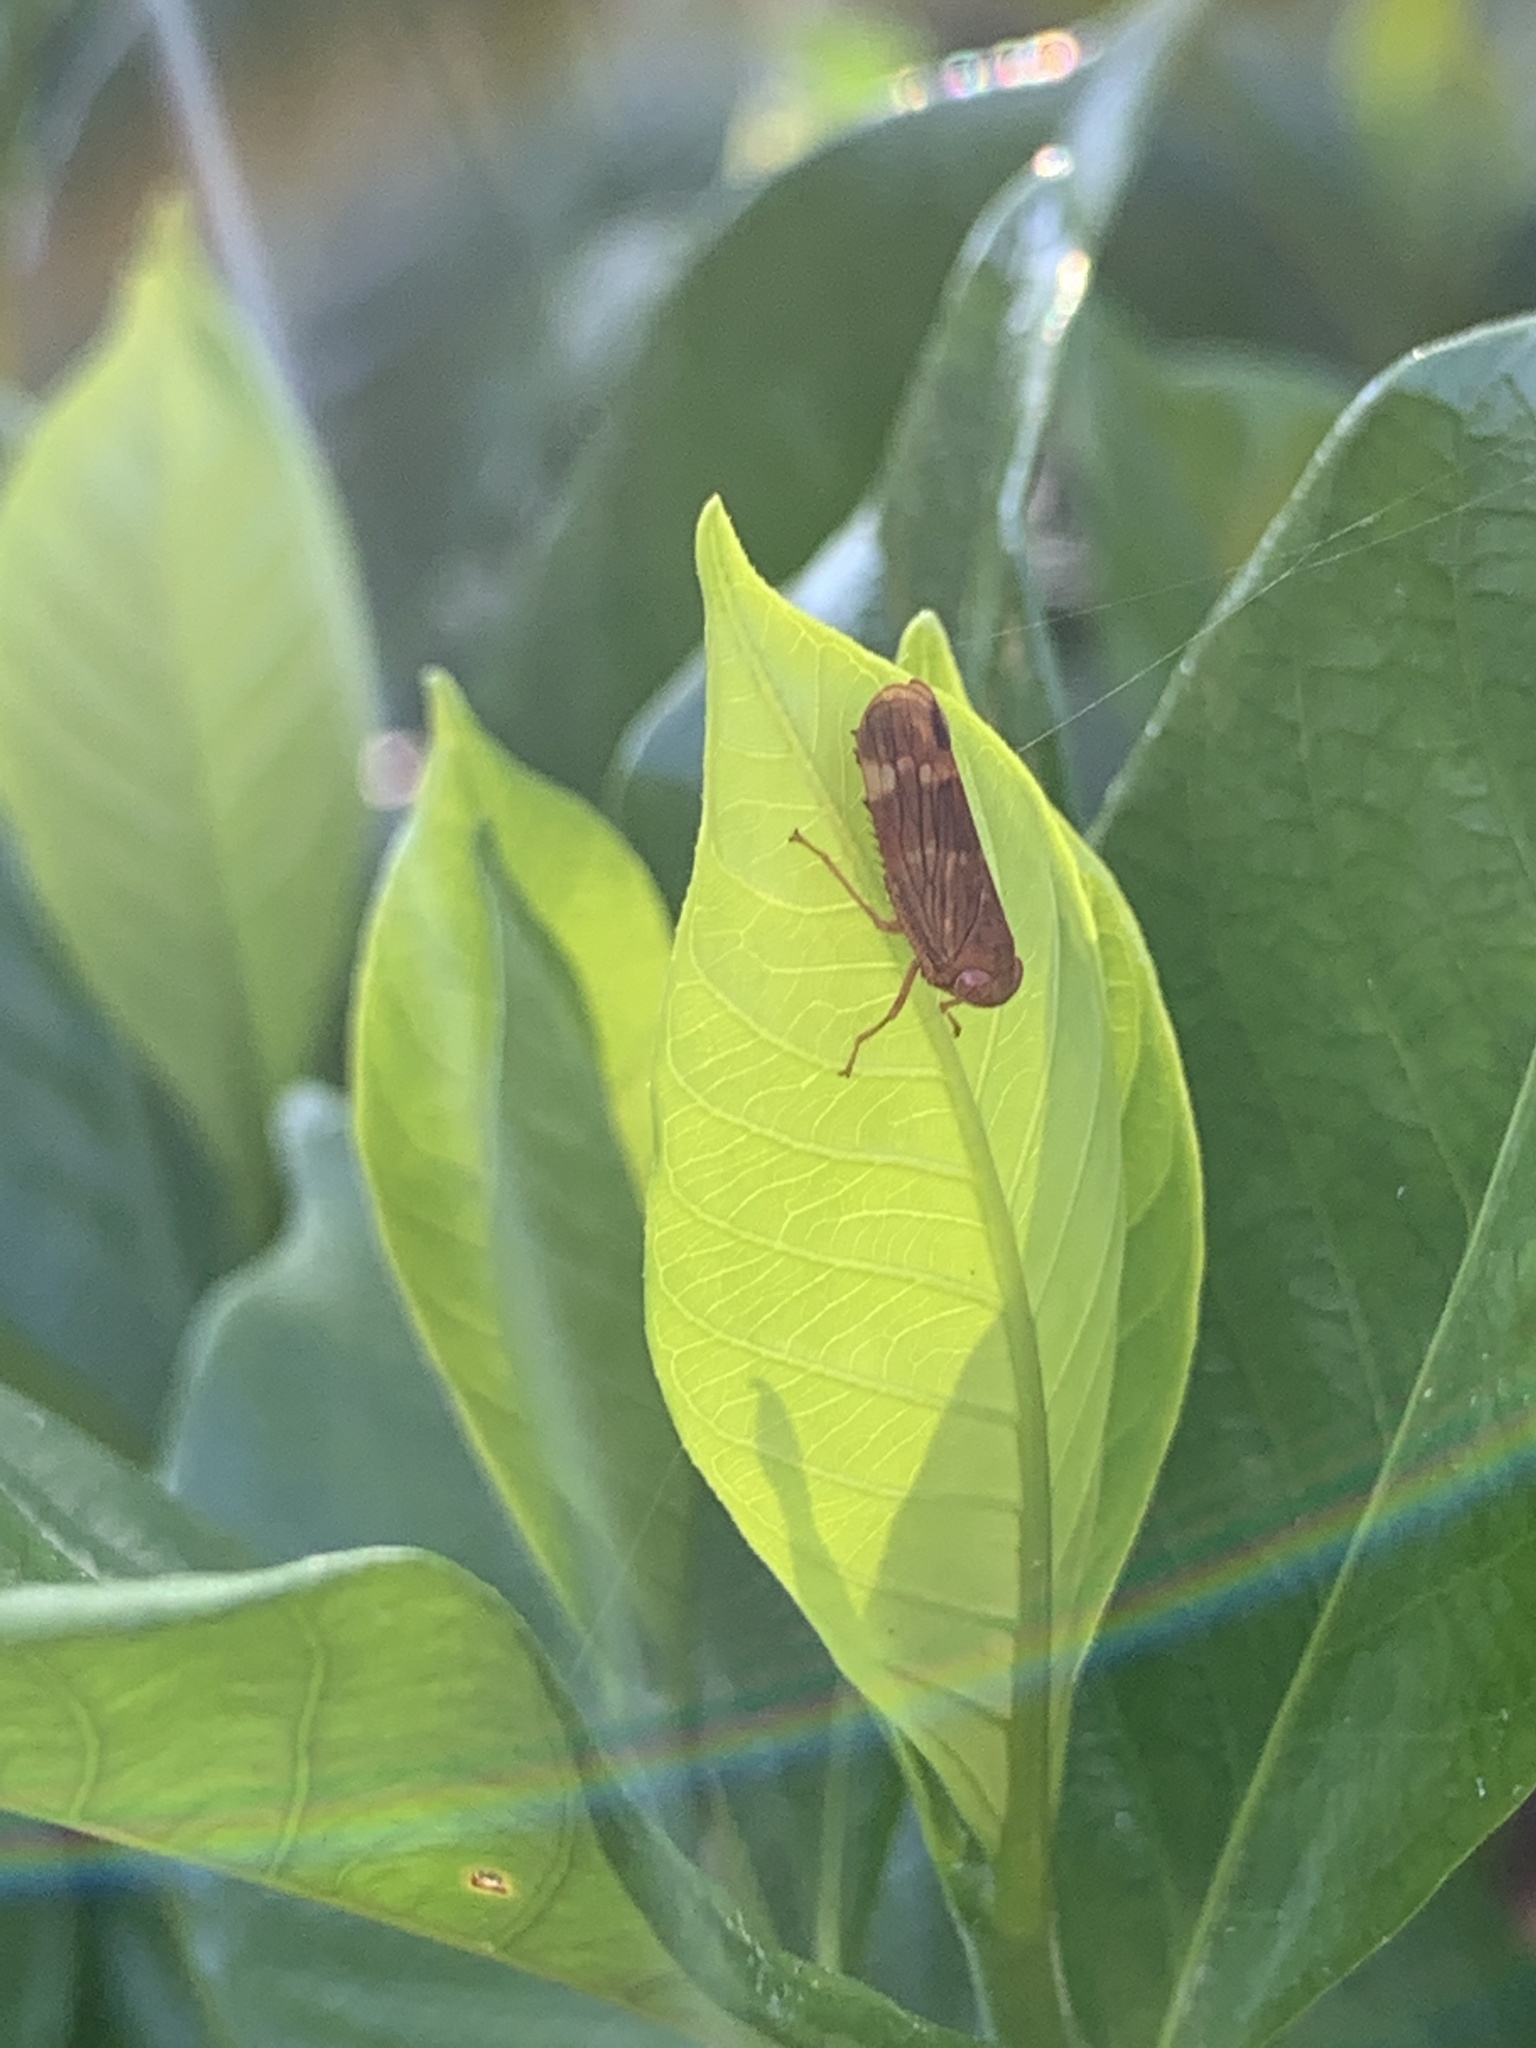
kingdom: Animalia
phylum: Arthropoda
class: Insecta
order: Hemiptera
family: Cicadellidae
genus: Jikradia
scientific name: Jikradia olitoria
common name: Coppery leafhopper
